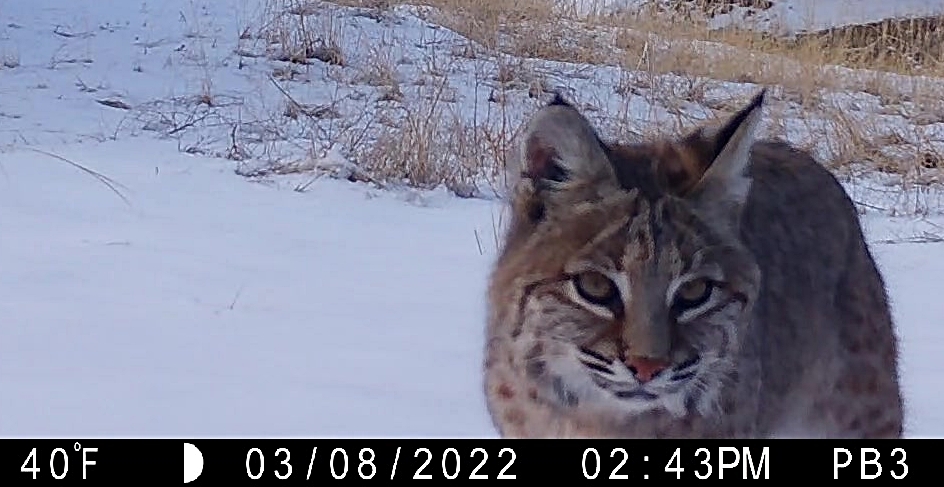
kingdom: Animalia
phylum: Chordata
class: Mammalia
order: Carnivora
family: Felidae
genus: Lynx
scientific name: Lynx rufus
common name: Bobcat
